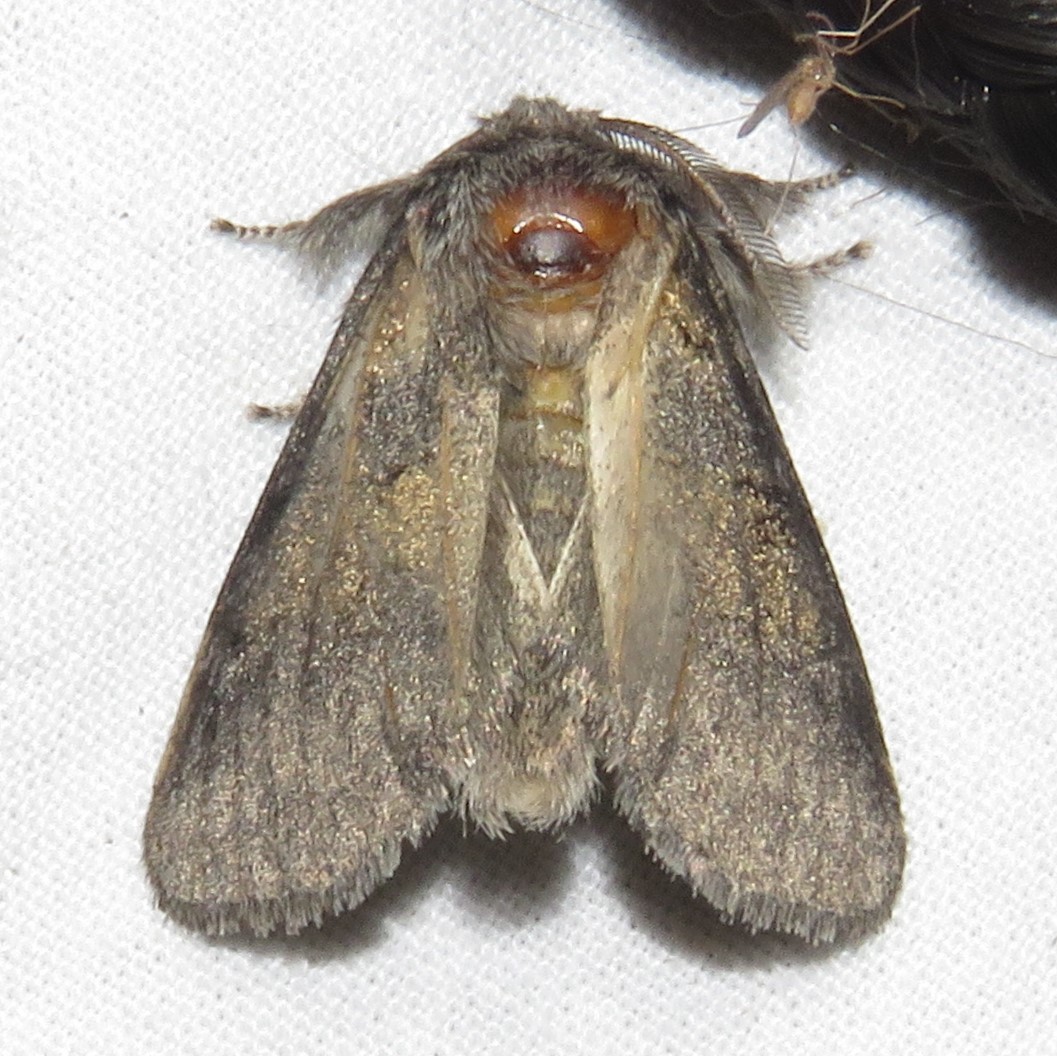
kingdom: Animalia
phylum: Arthropoda
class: Insecta
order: Lepidoptera
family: Notodontidae
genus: Gluphisia
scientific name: Gluphisia septentrionis
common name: Common gluphisia
